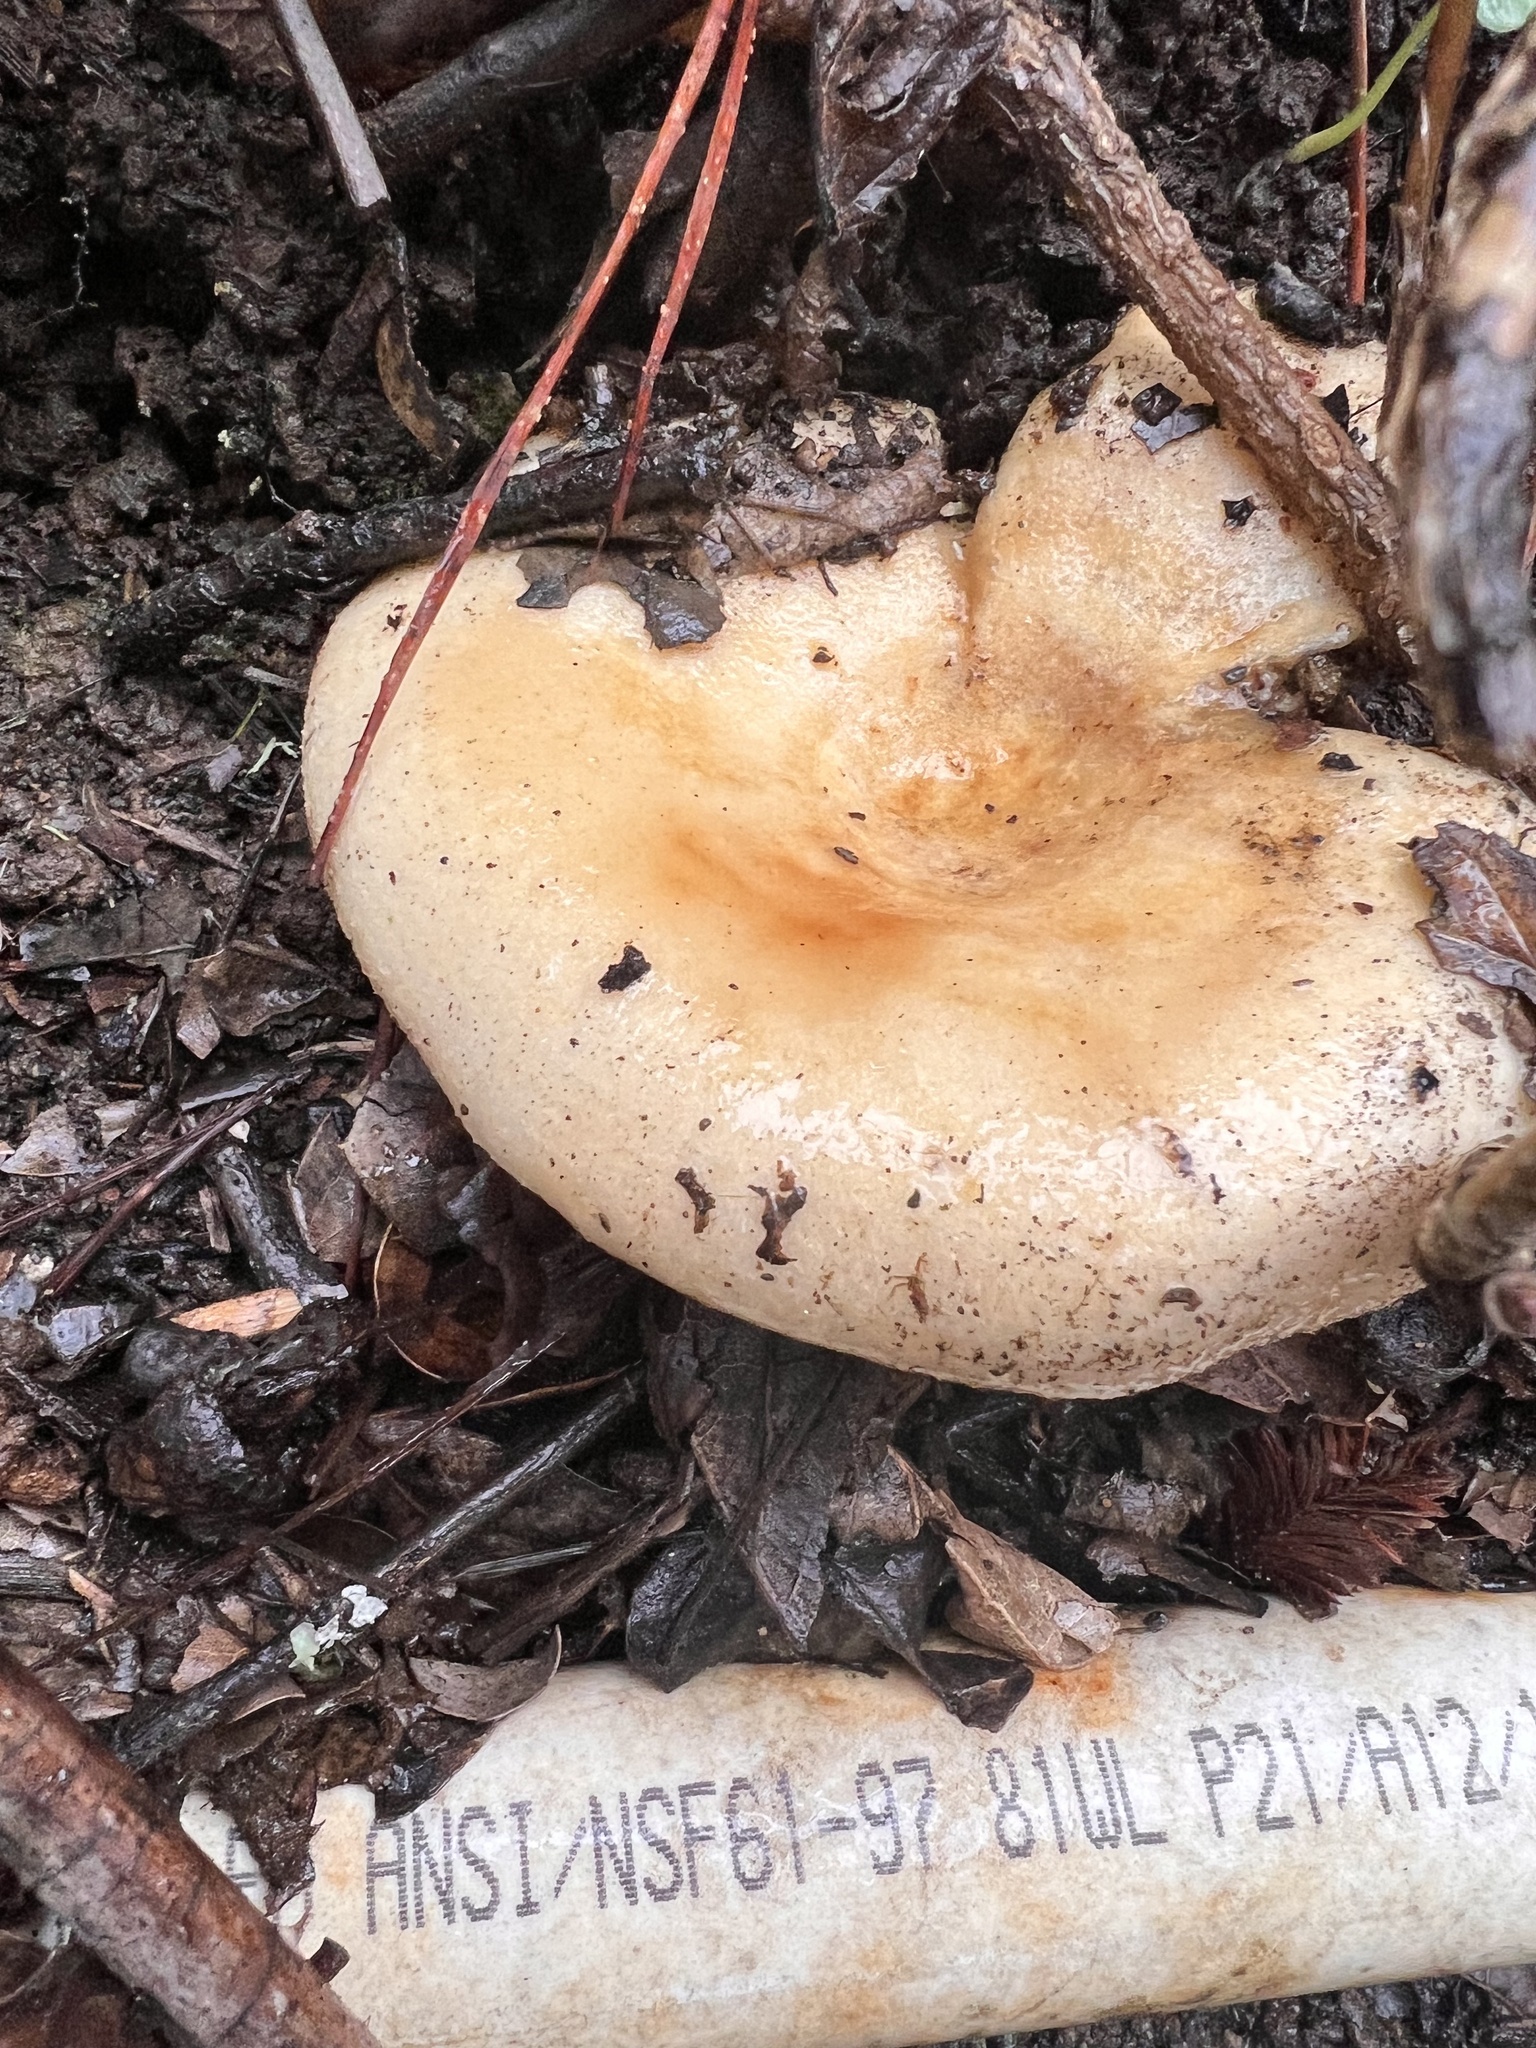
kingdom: Fungi
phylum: Basidiomycota
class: Agaricomycetes
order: Russulales
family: Russulaceae
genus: Lactarius
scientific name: Lactarius alnicola
